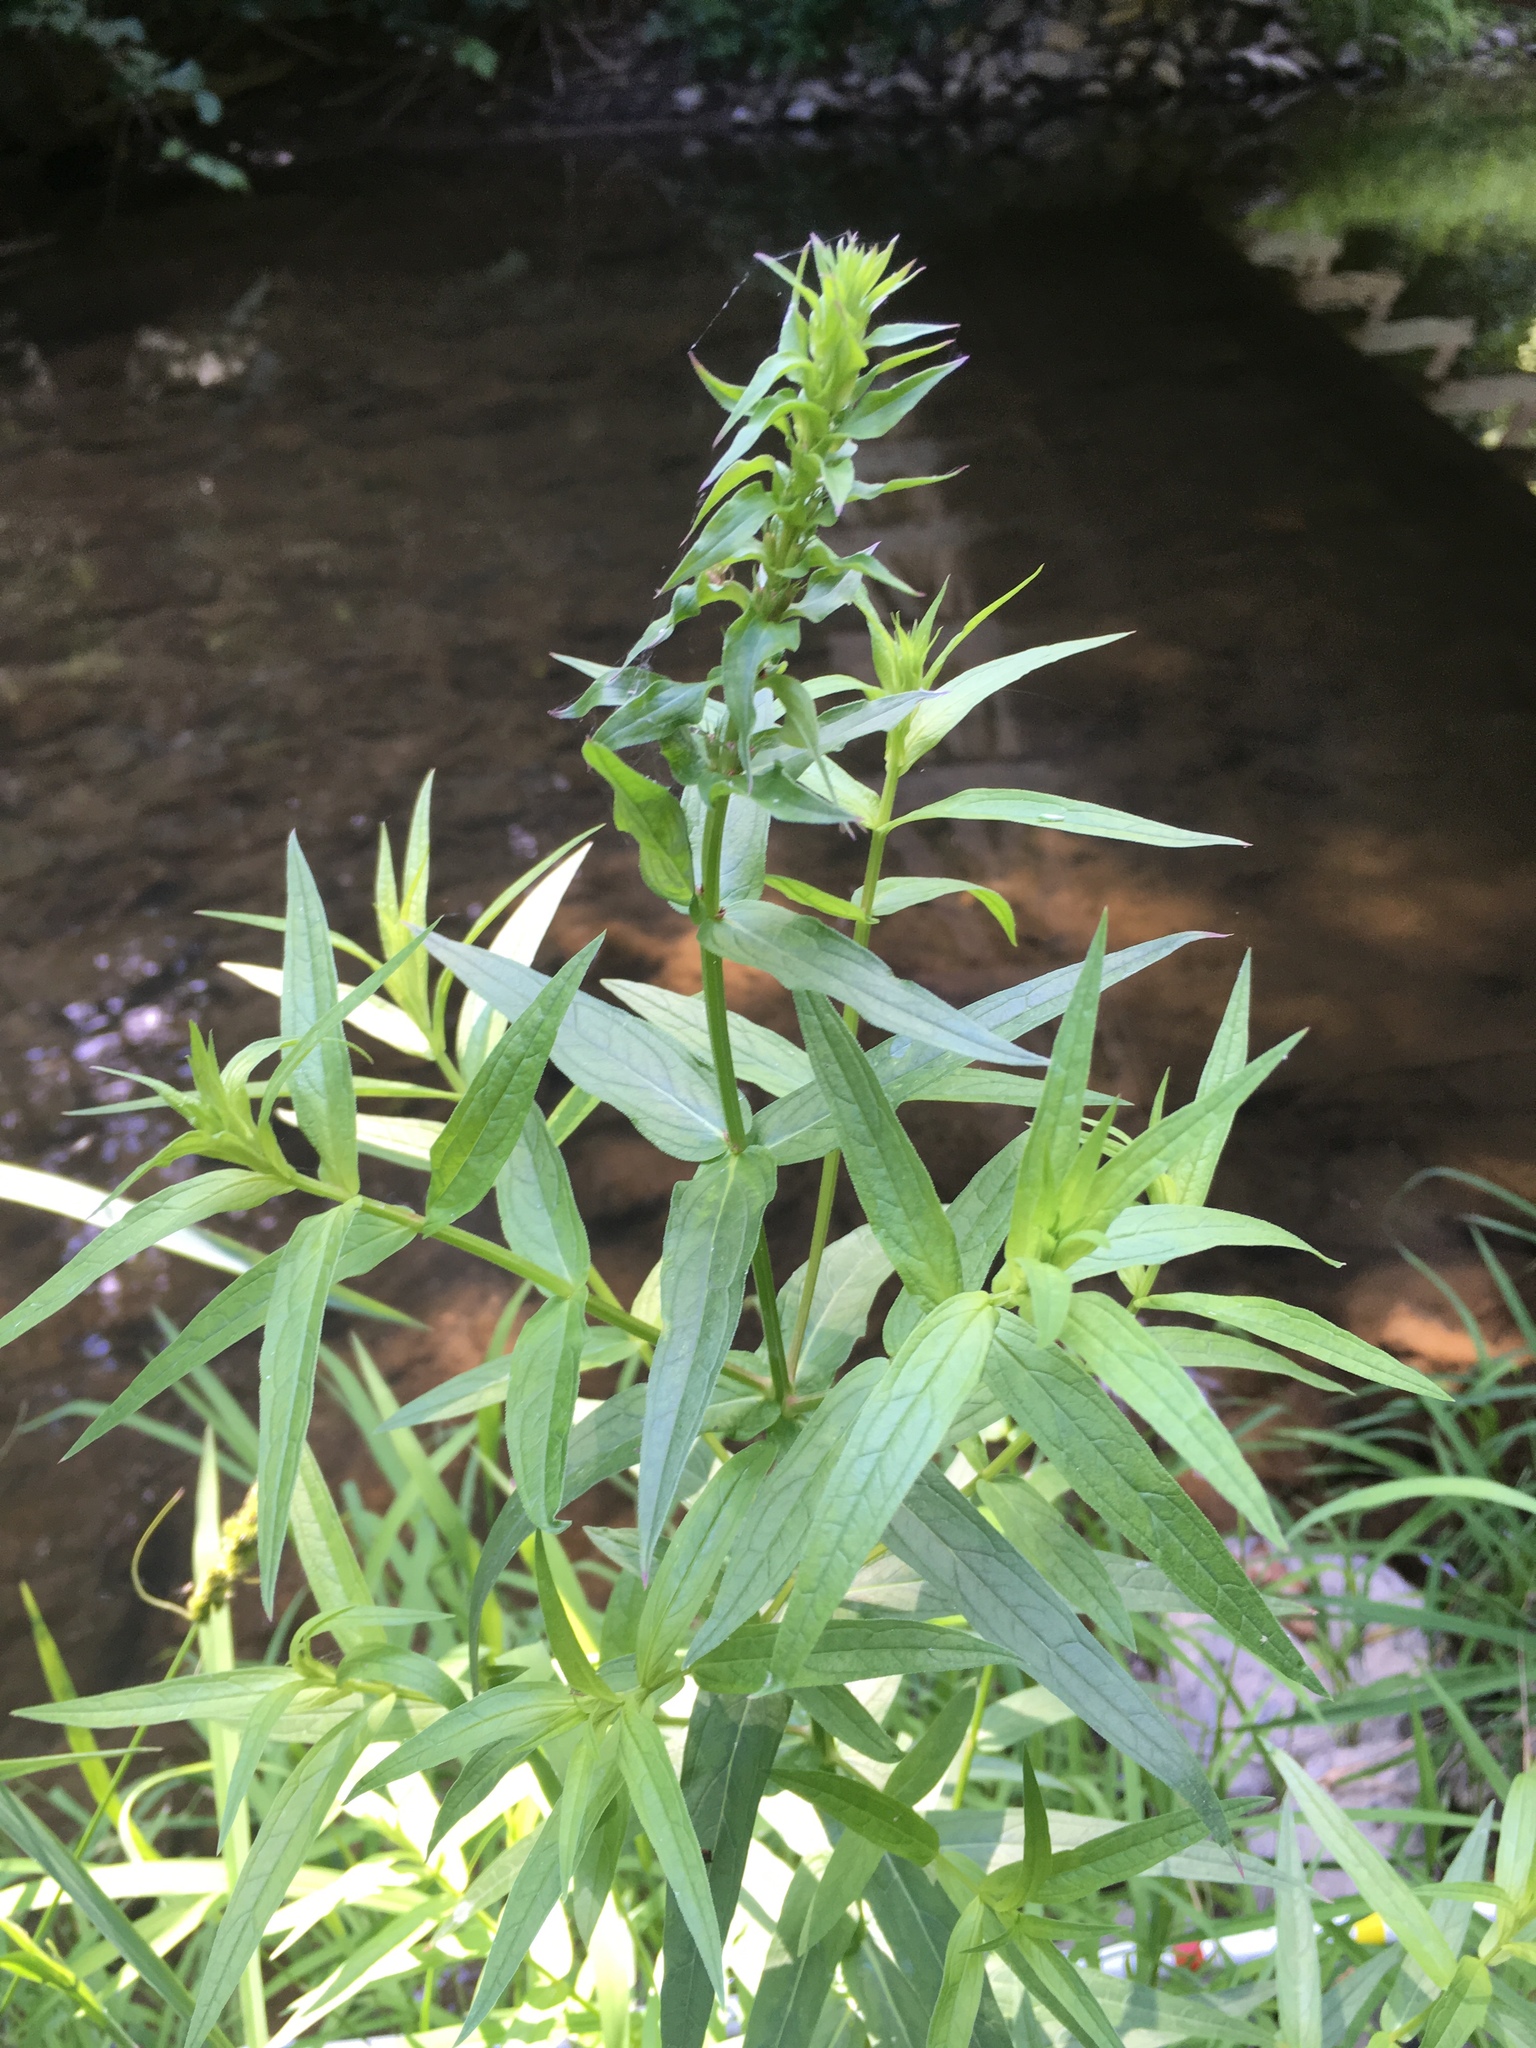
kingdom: Plantae
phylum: Tracheophyta
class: Magnoliopsida
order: Myrtales
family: Lythraceae
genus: Lythrum
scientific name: Lythrum salicaria
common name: Purple loosestrife
